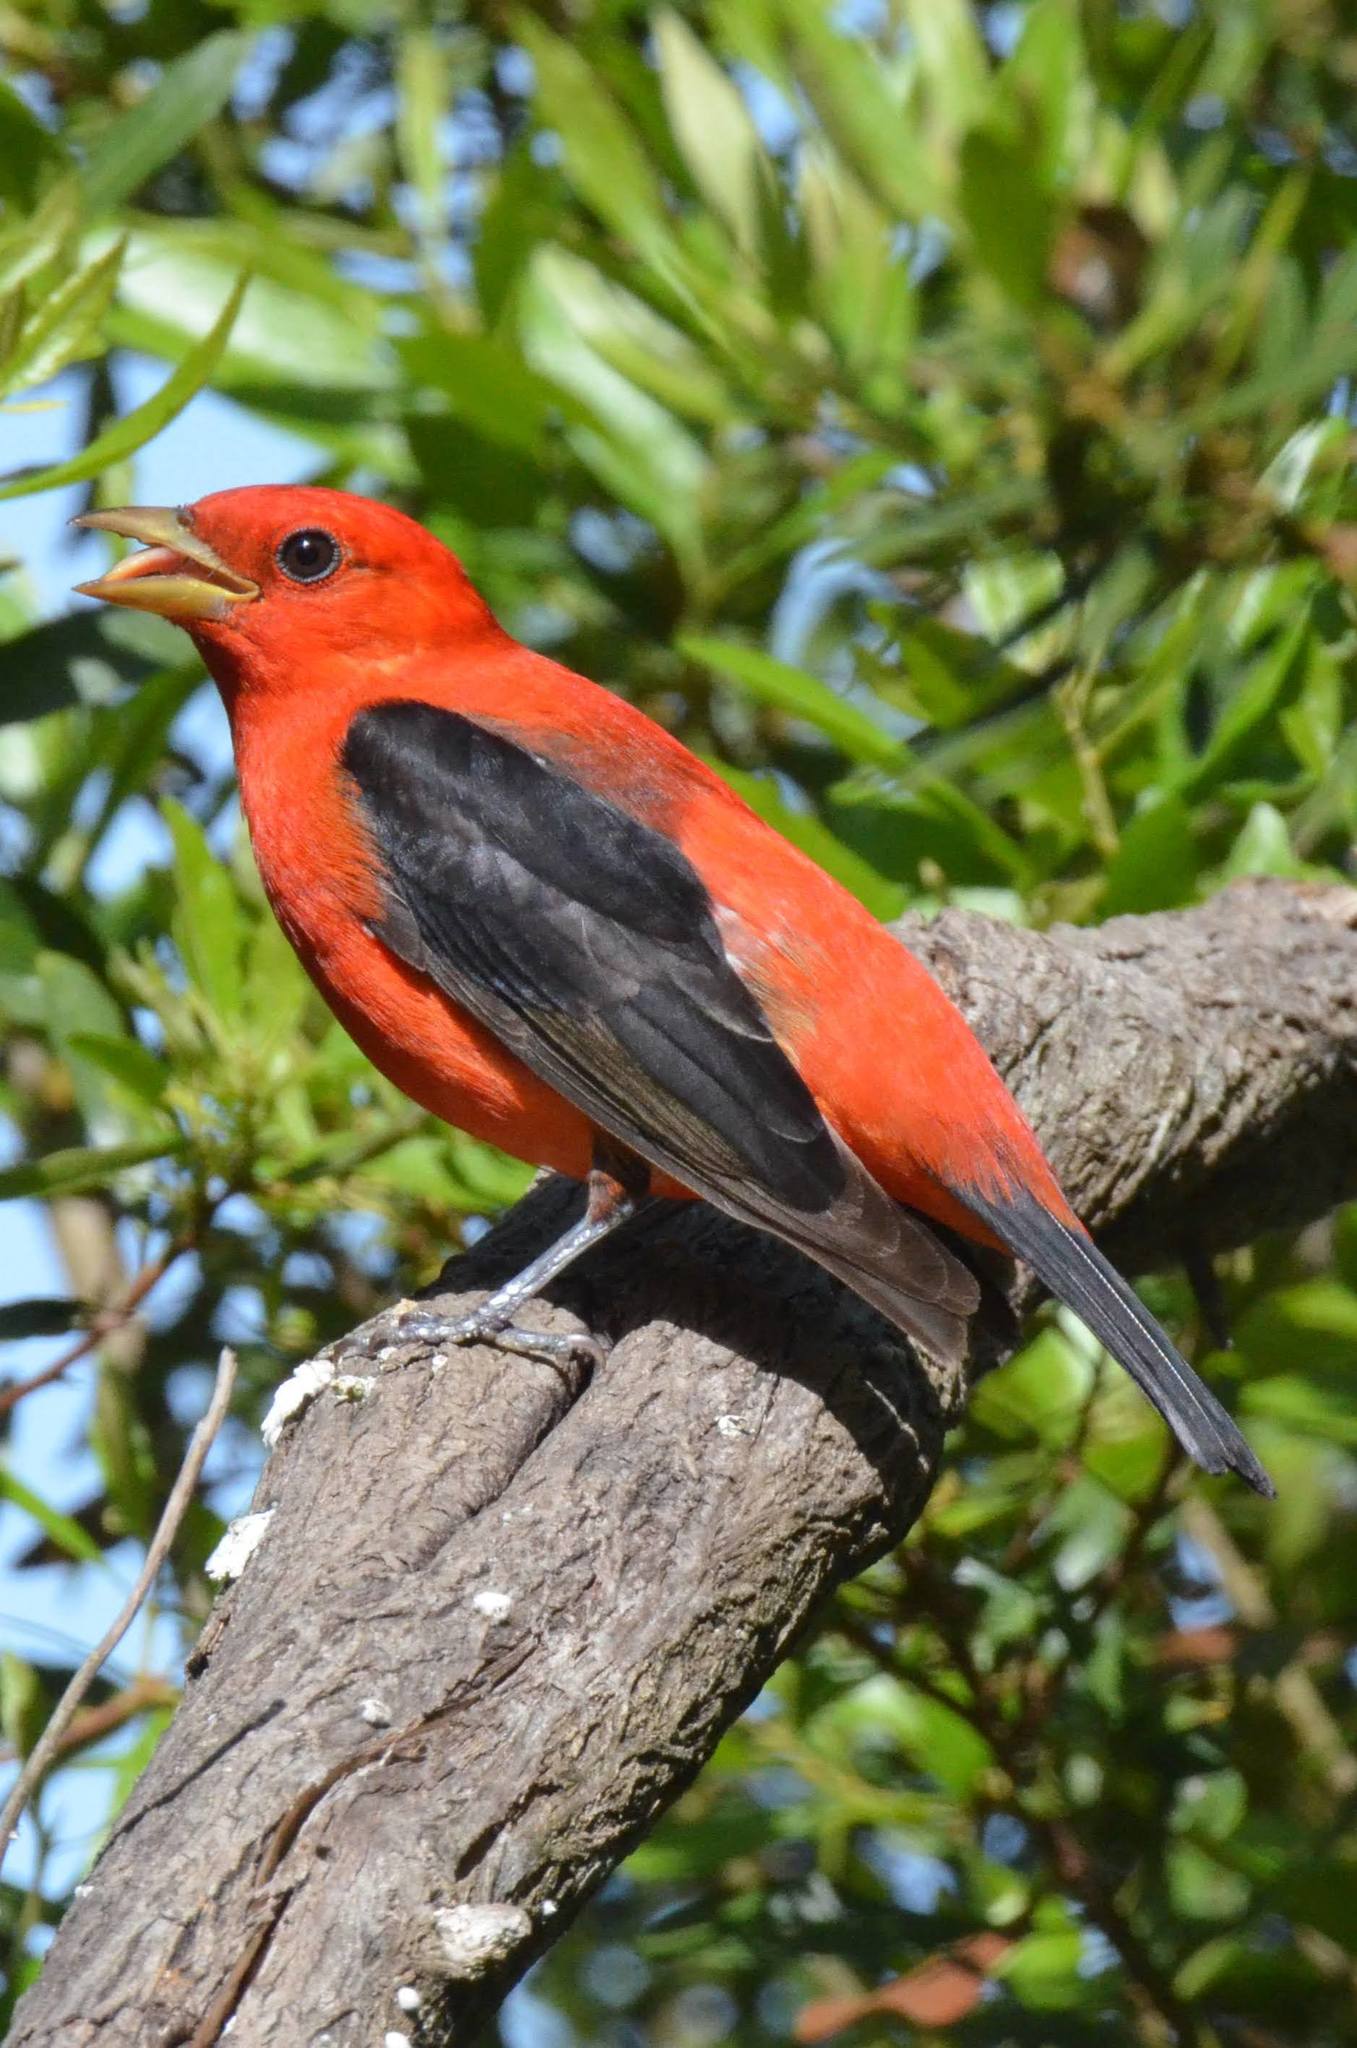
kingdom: Animalia
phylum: Chordata
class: Aves
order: Passeriformes
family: Cardinalidae
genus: Piranga
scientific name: Piranga olivacea
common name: Scarlet tanager
